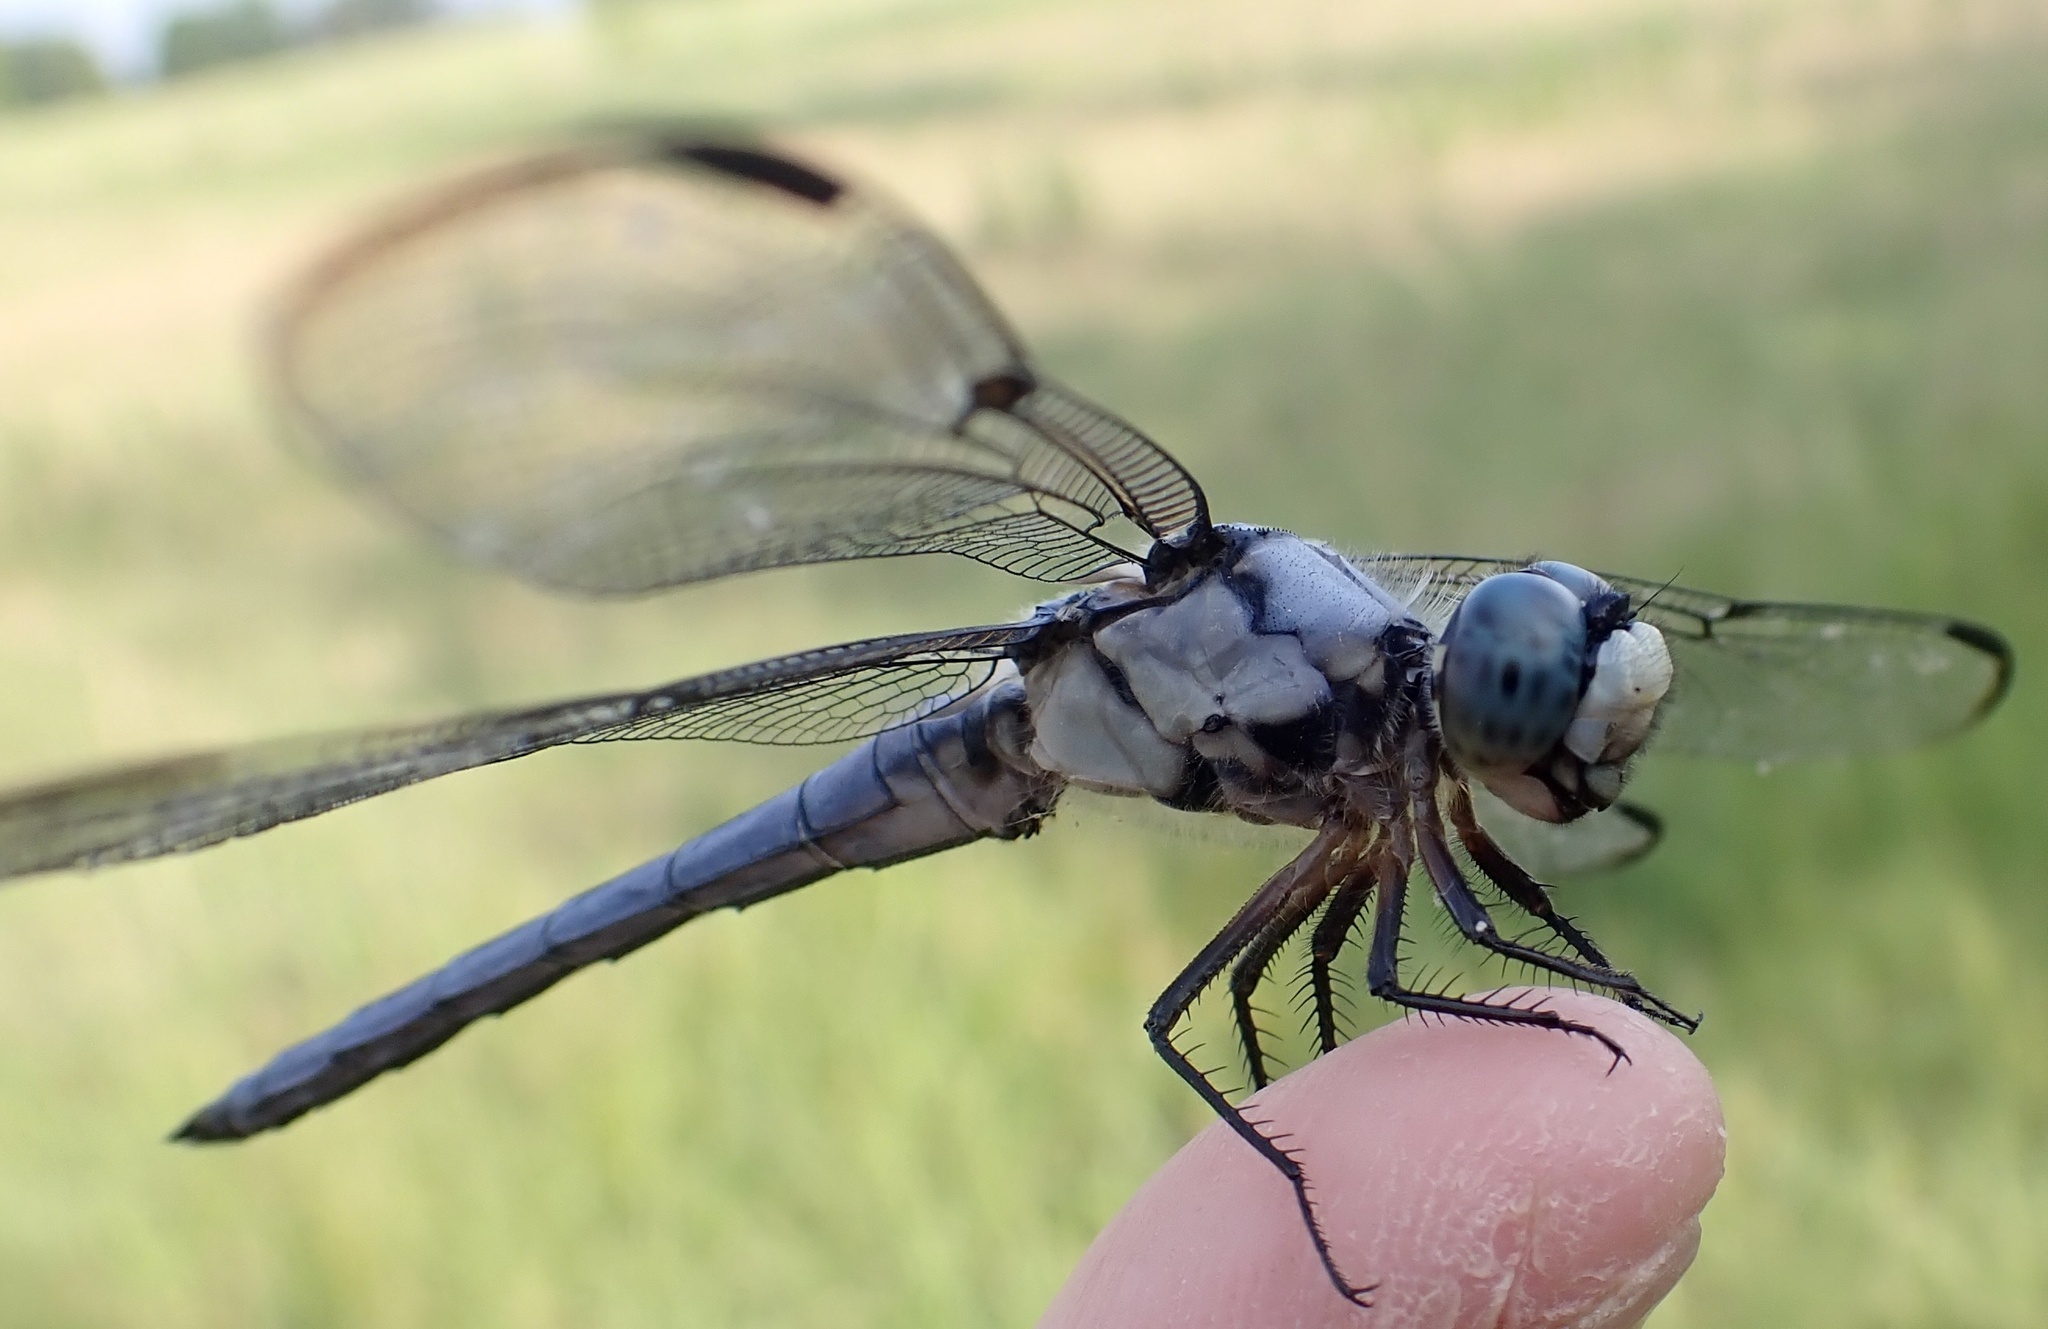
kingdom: Animalia
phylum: Arthropoda
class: Insecta
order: Odonata
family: Libellulidae
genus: Libellula
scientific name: Libellula vibrans
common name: Great blue skimmer
